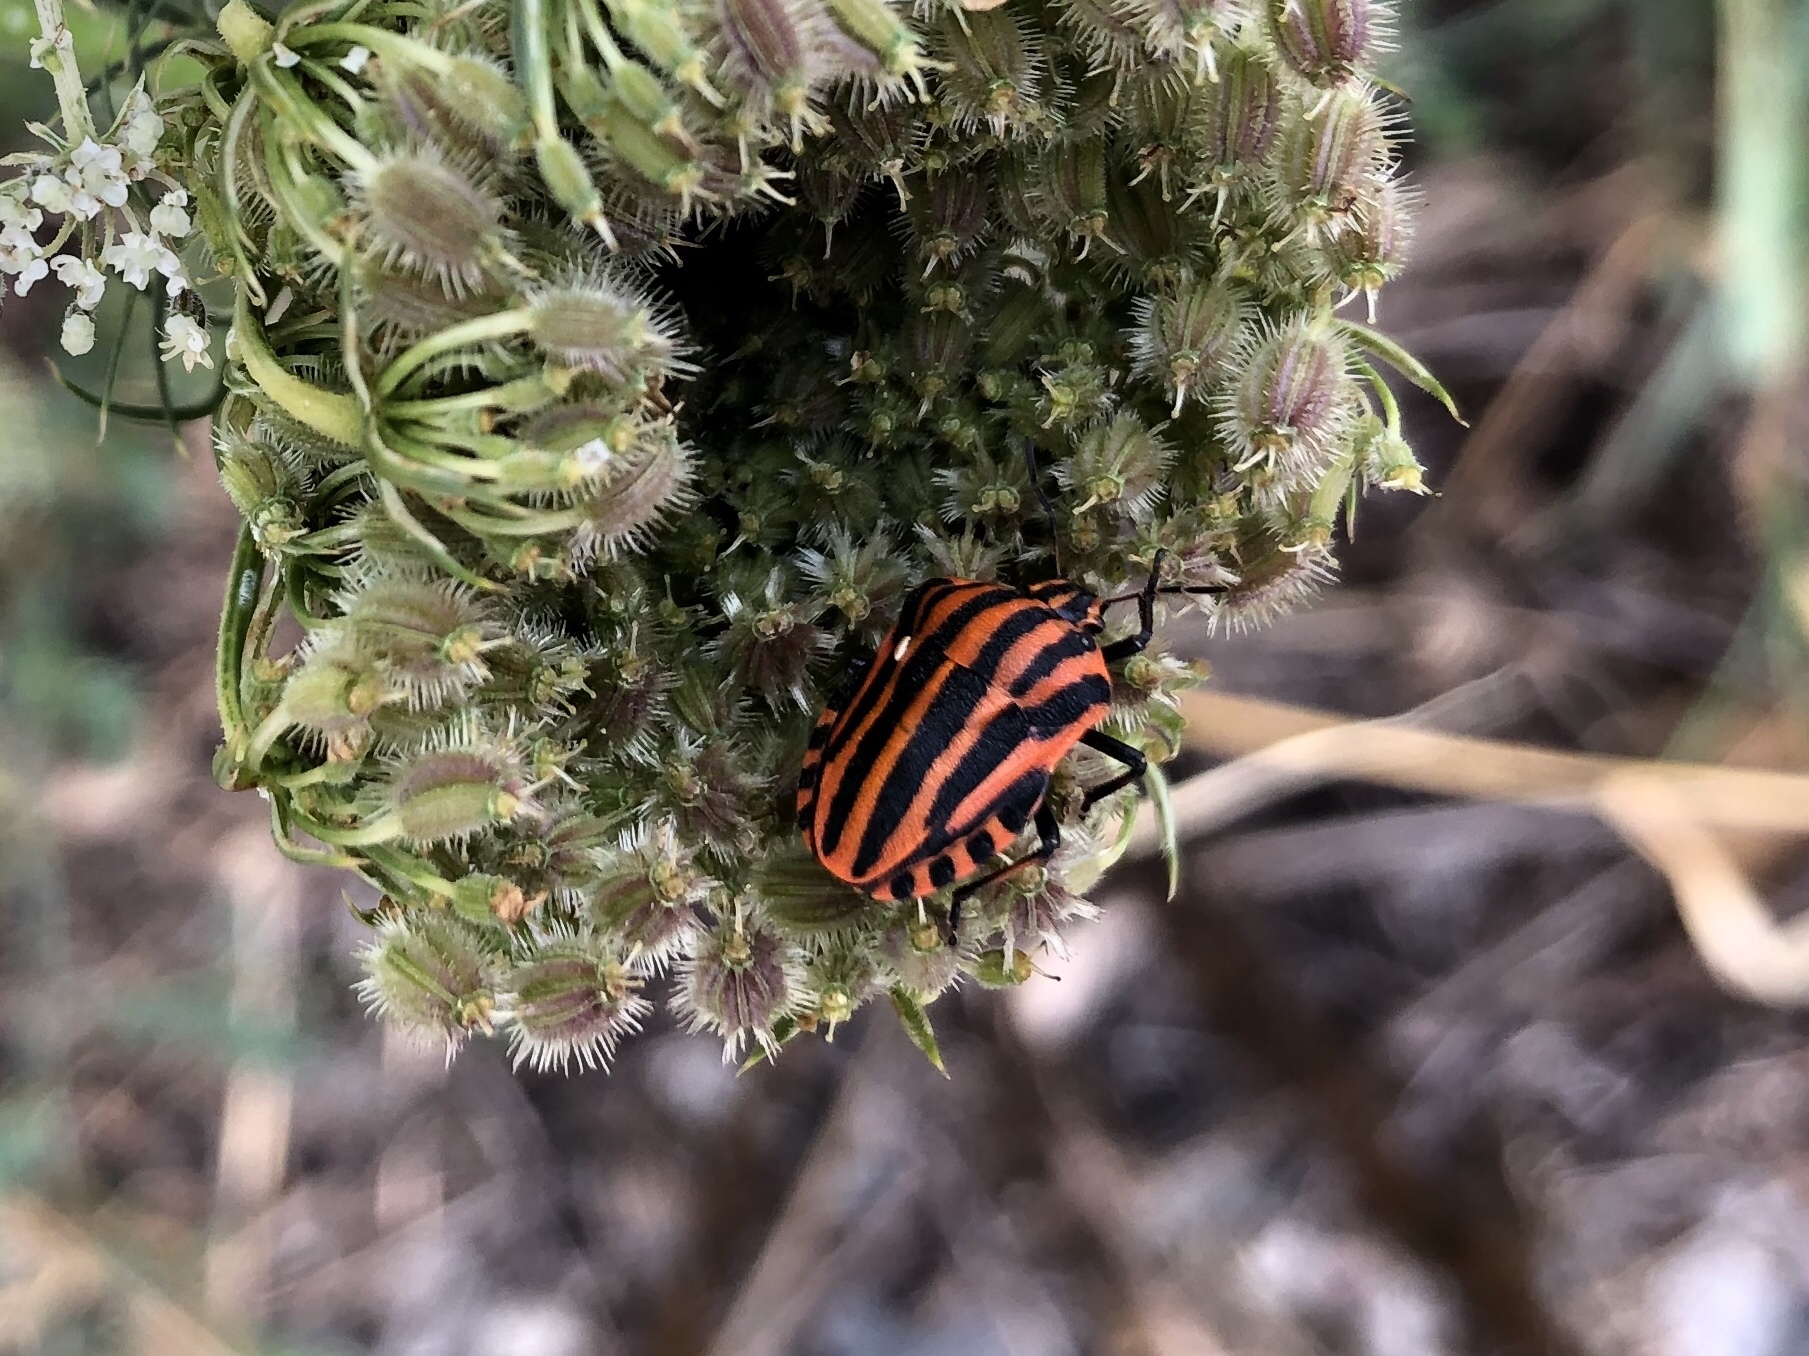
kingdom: Animalia
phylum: Arthropoda
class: Insecta
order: Hemiptera
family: Pentatomidae
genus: Graphosoma
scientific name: Graphosoma italicum
